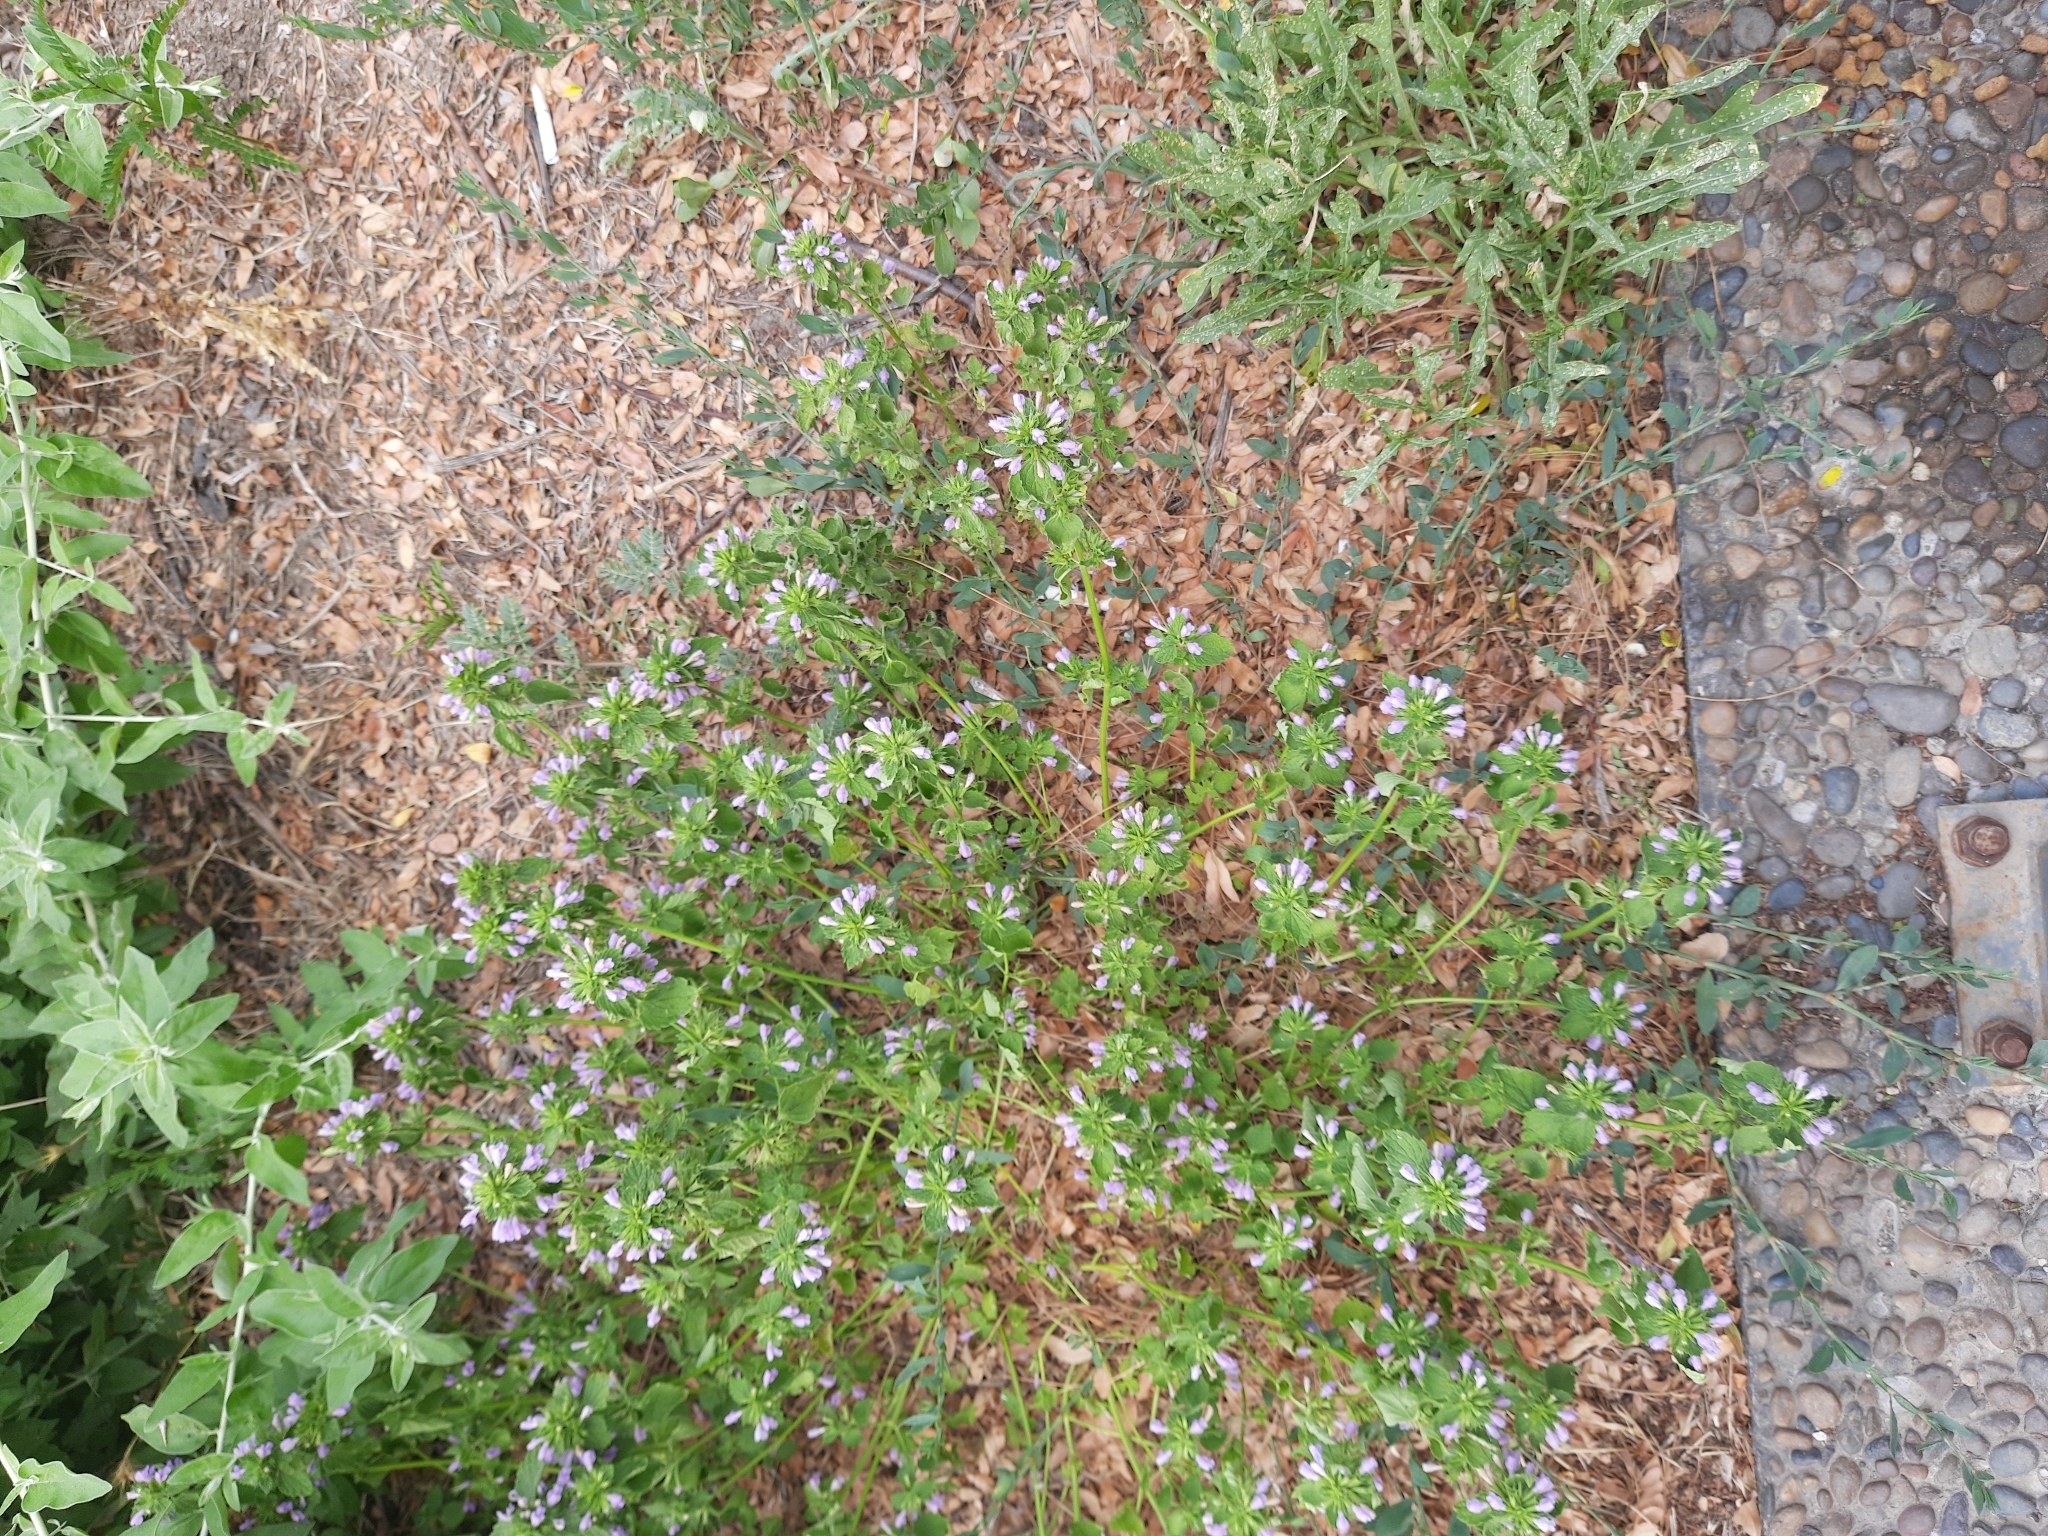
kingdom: Plantae
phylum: Tracheophyta
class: Magnoliopsida
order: Lamiales
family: Lamiaceae
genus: Ballota
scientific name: Ballota nigra
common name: Black horehound
